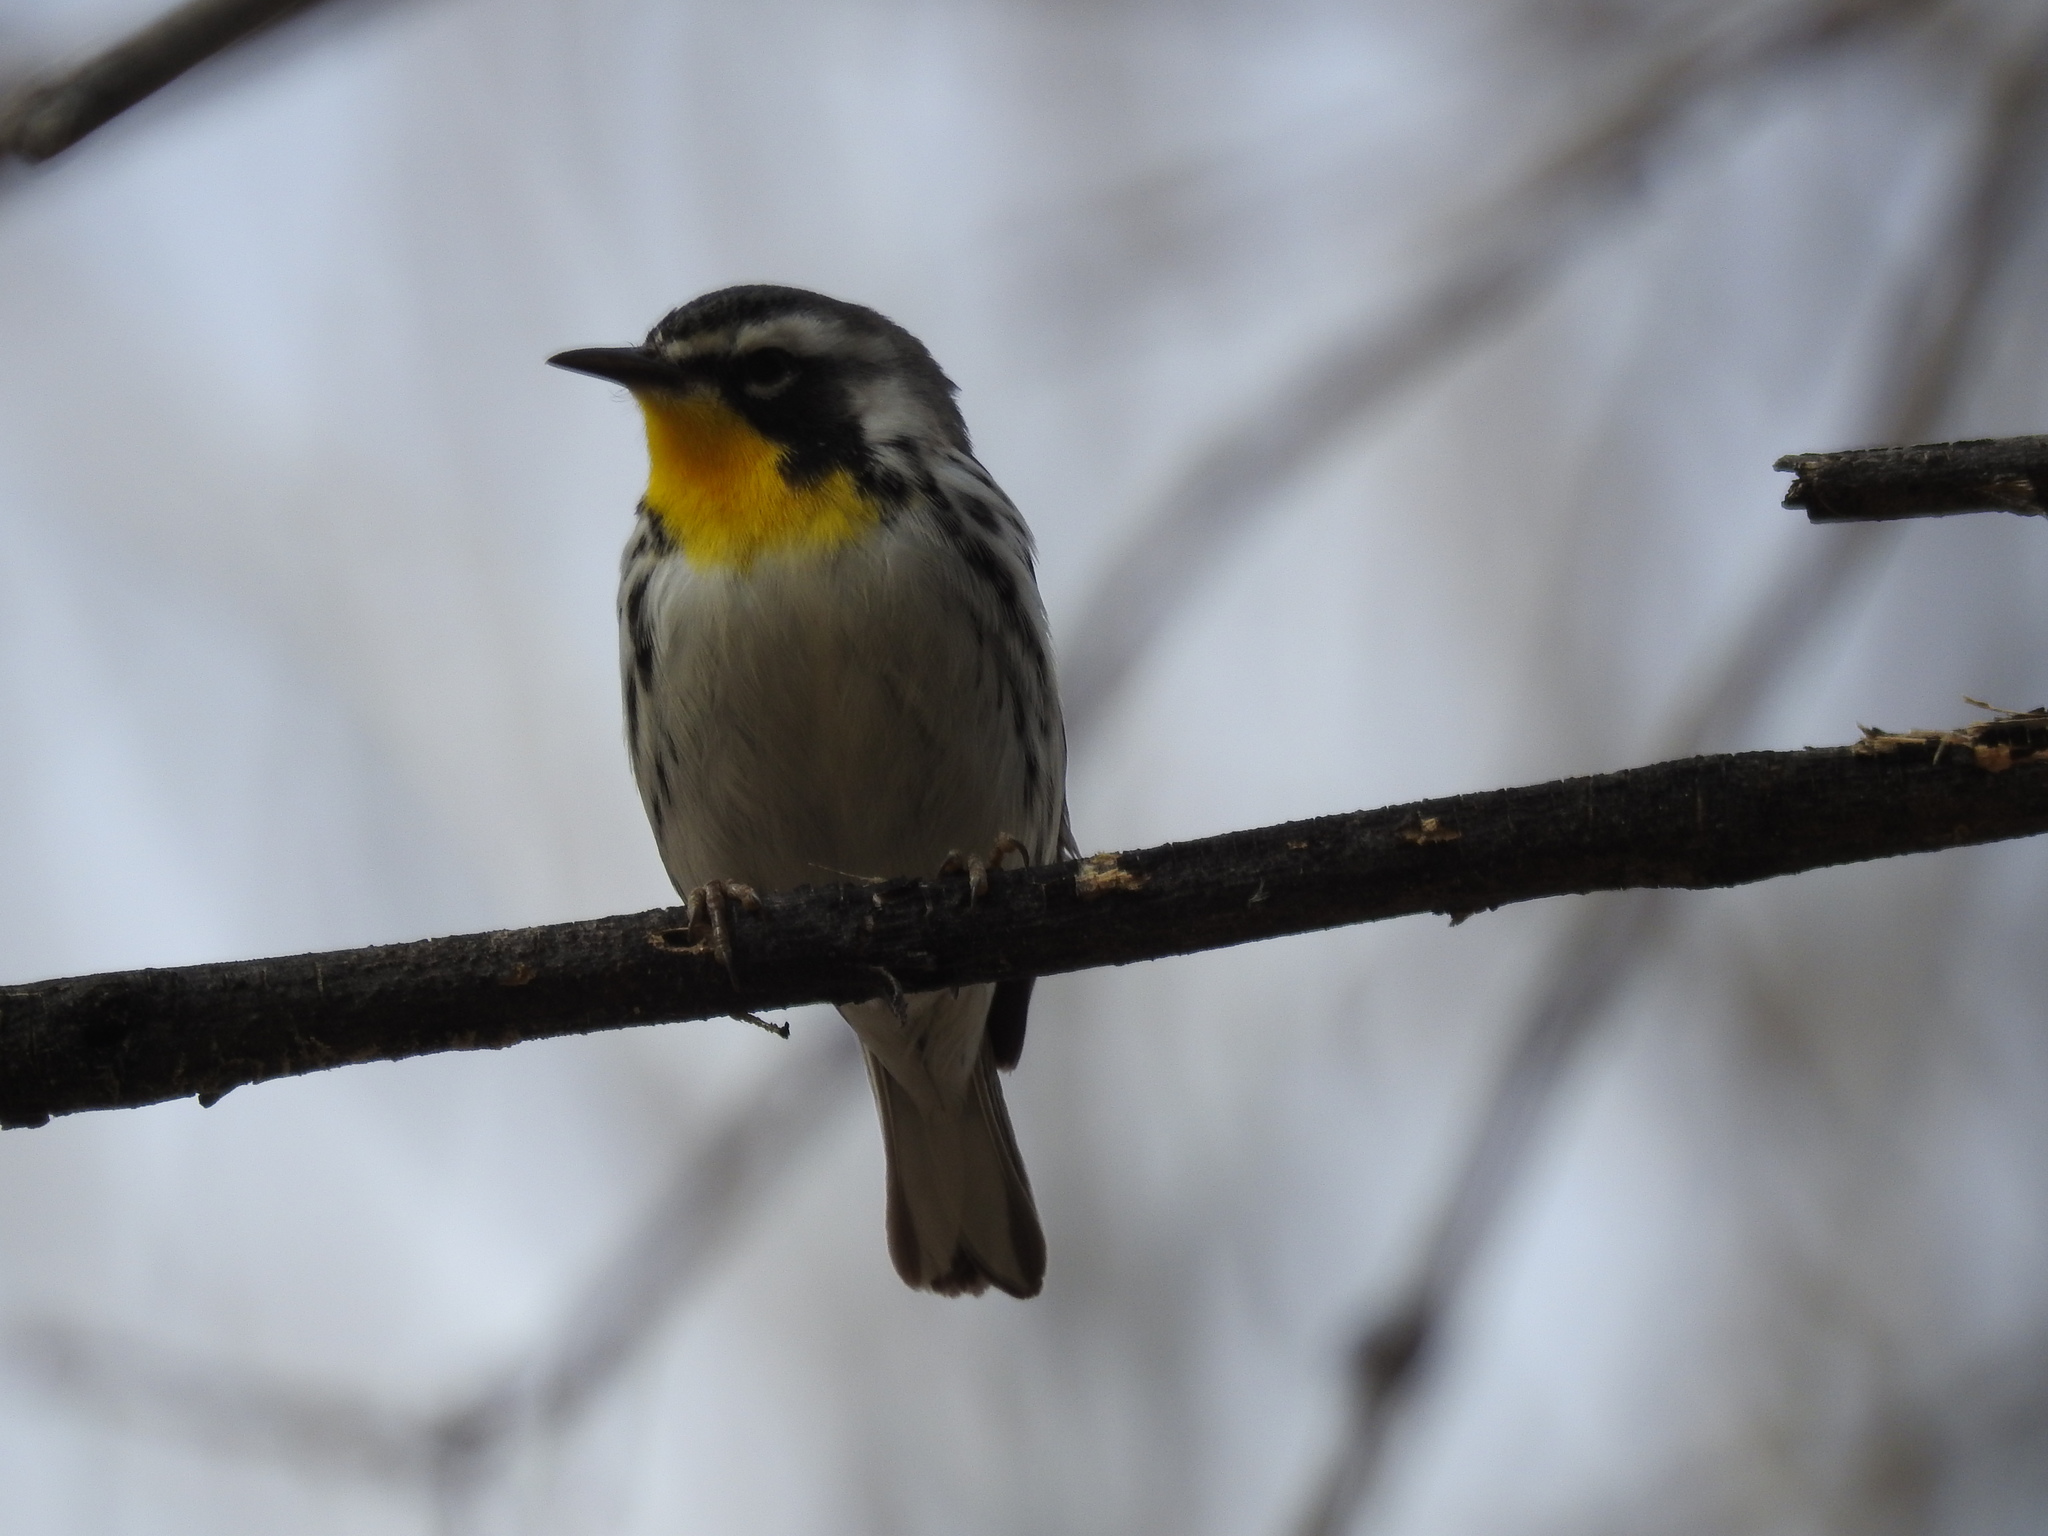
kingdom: Animalia
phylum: Chordata
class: Aves
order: Passeriformes
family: Parulidae
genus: Setophaga
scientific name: Setophaga dominica
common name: Yellow-throated warbler
